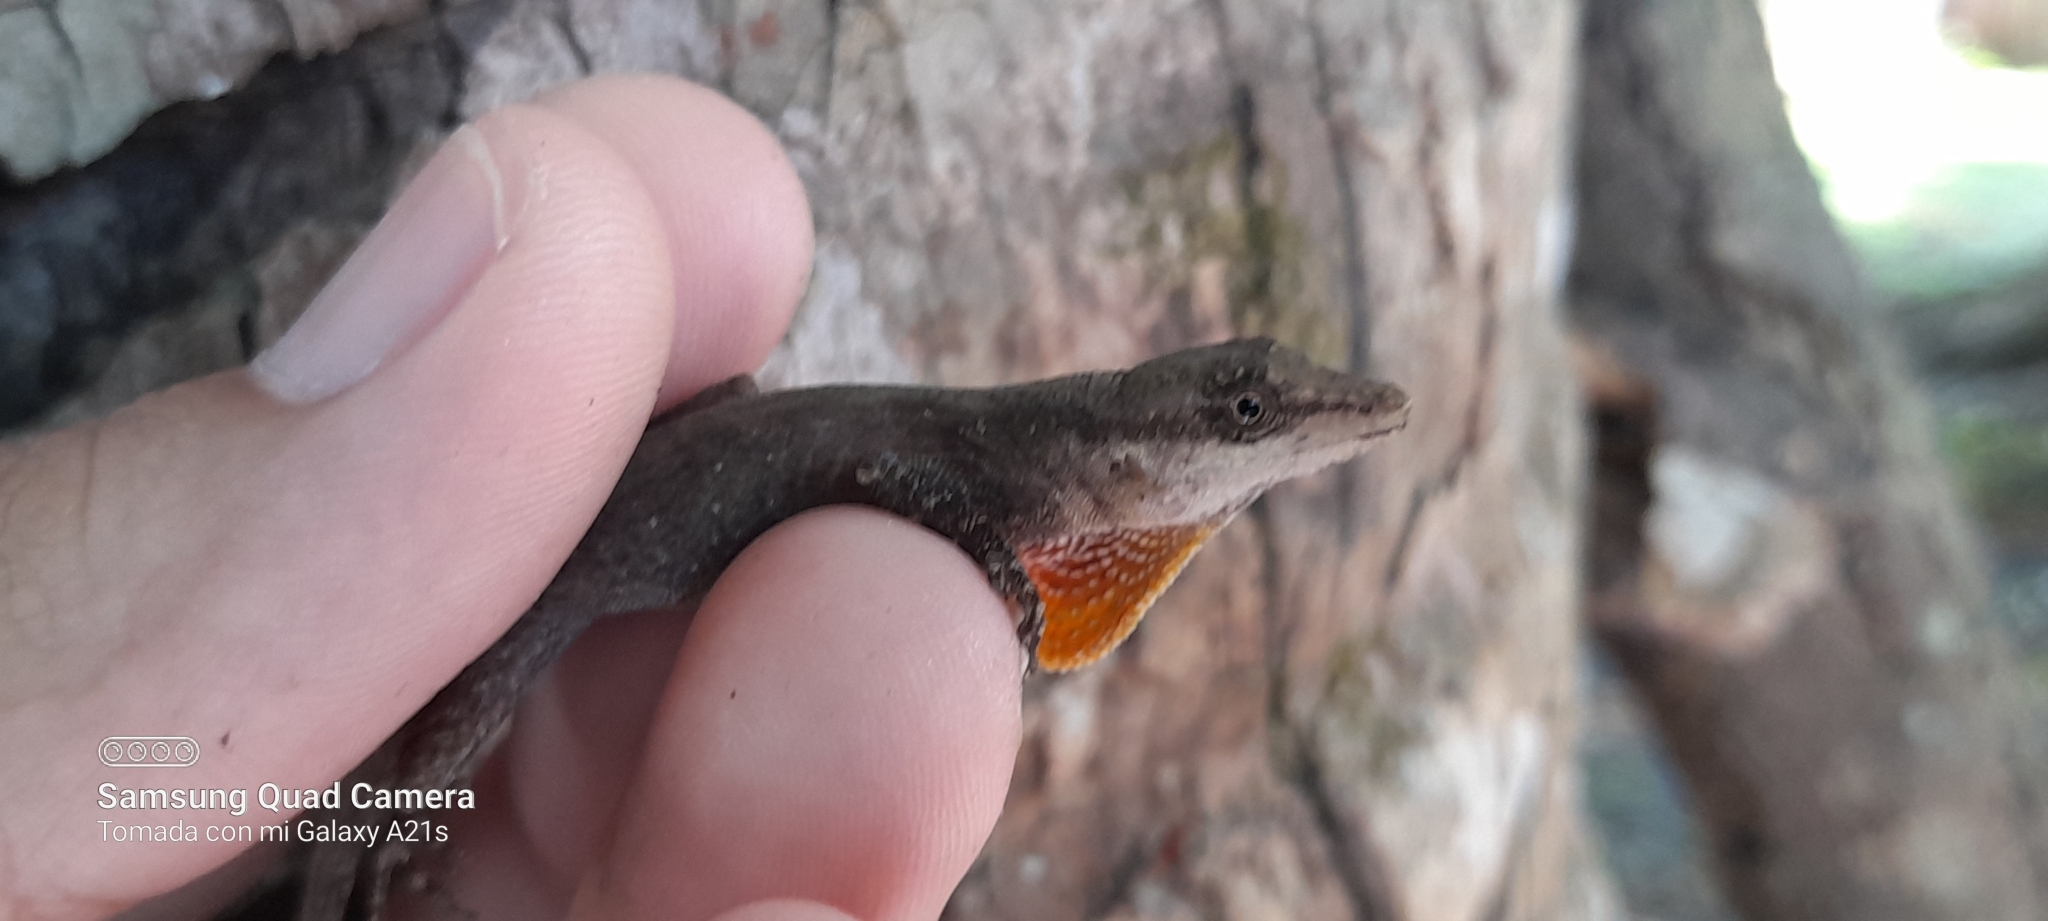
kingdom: Animalia
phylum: Chordata
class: Squamata
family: Dactyloidae
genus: Anolis
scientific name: Anolis gaigei
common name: Gaige’s anole
